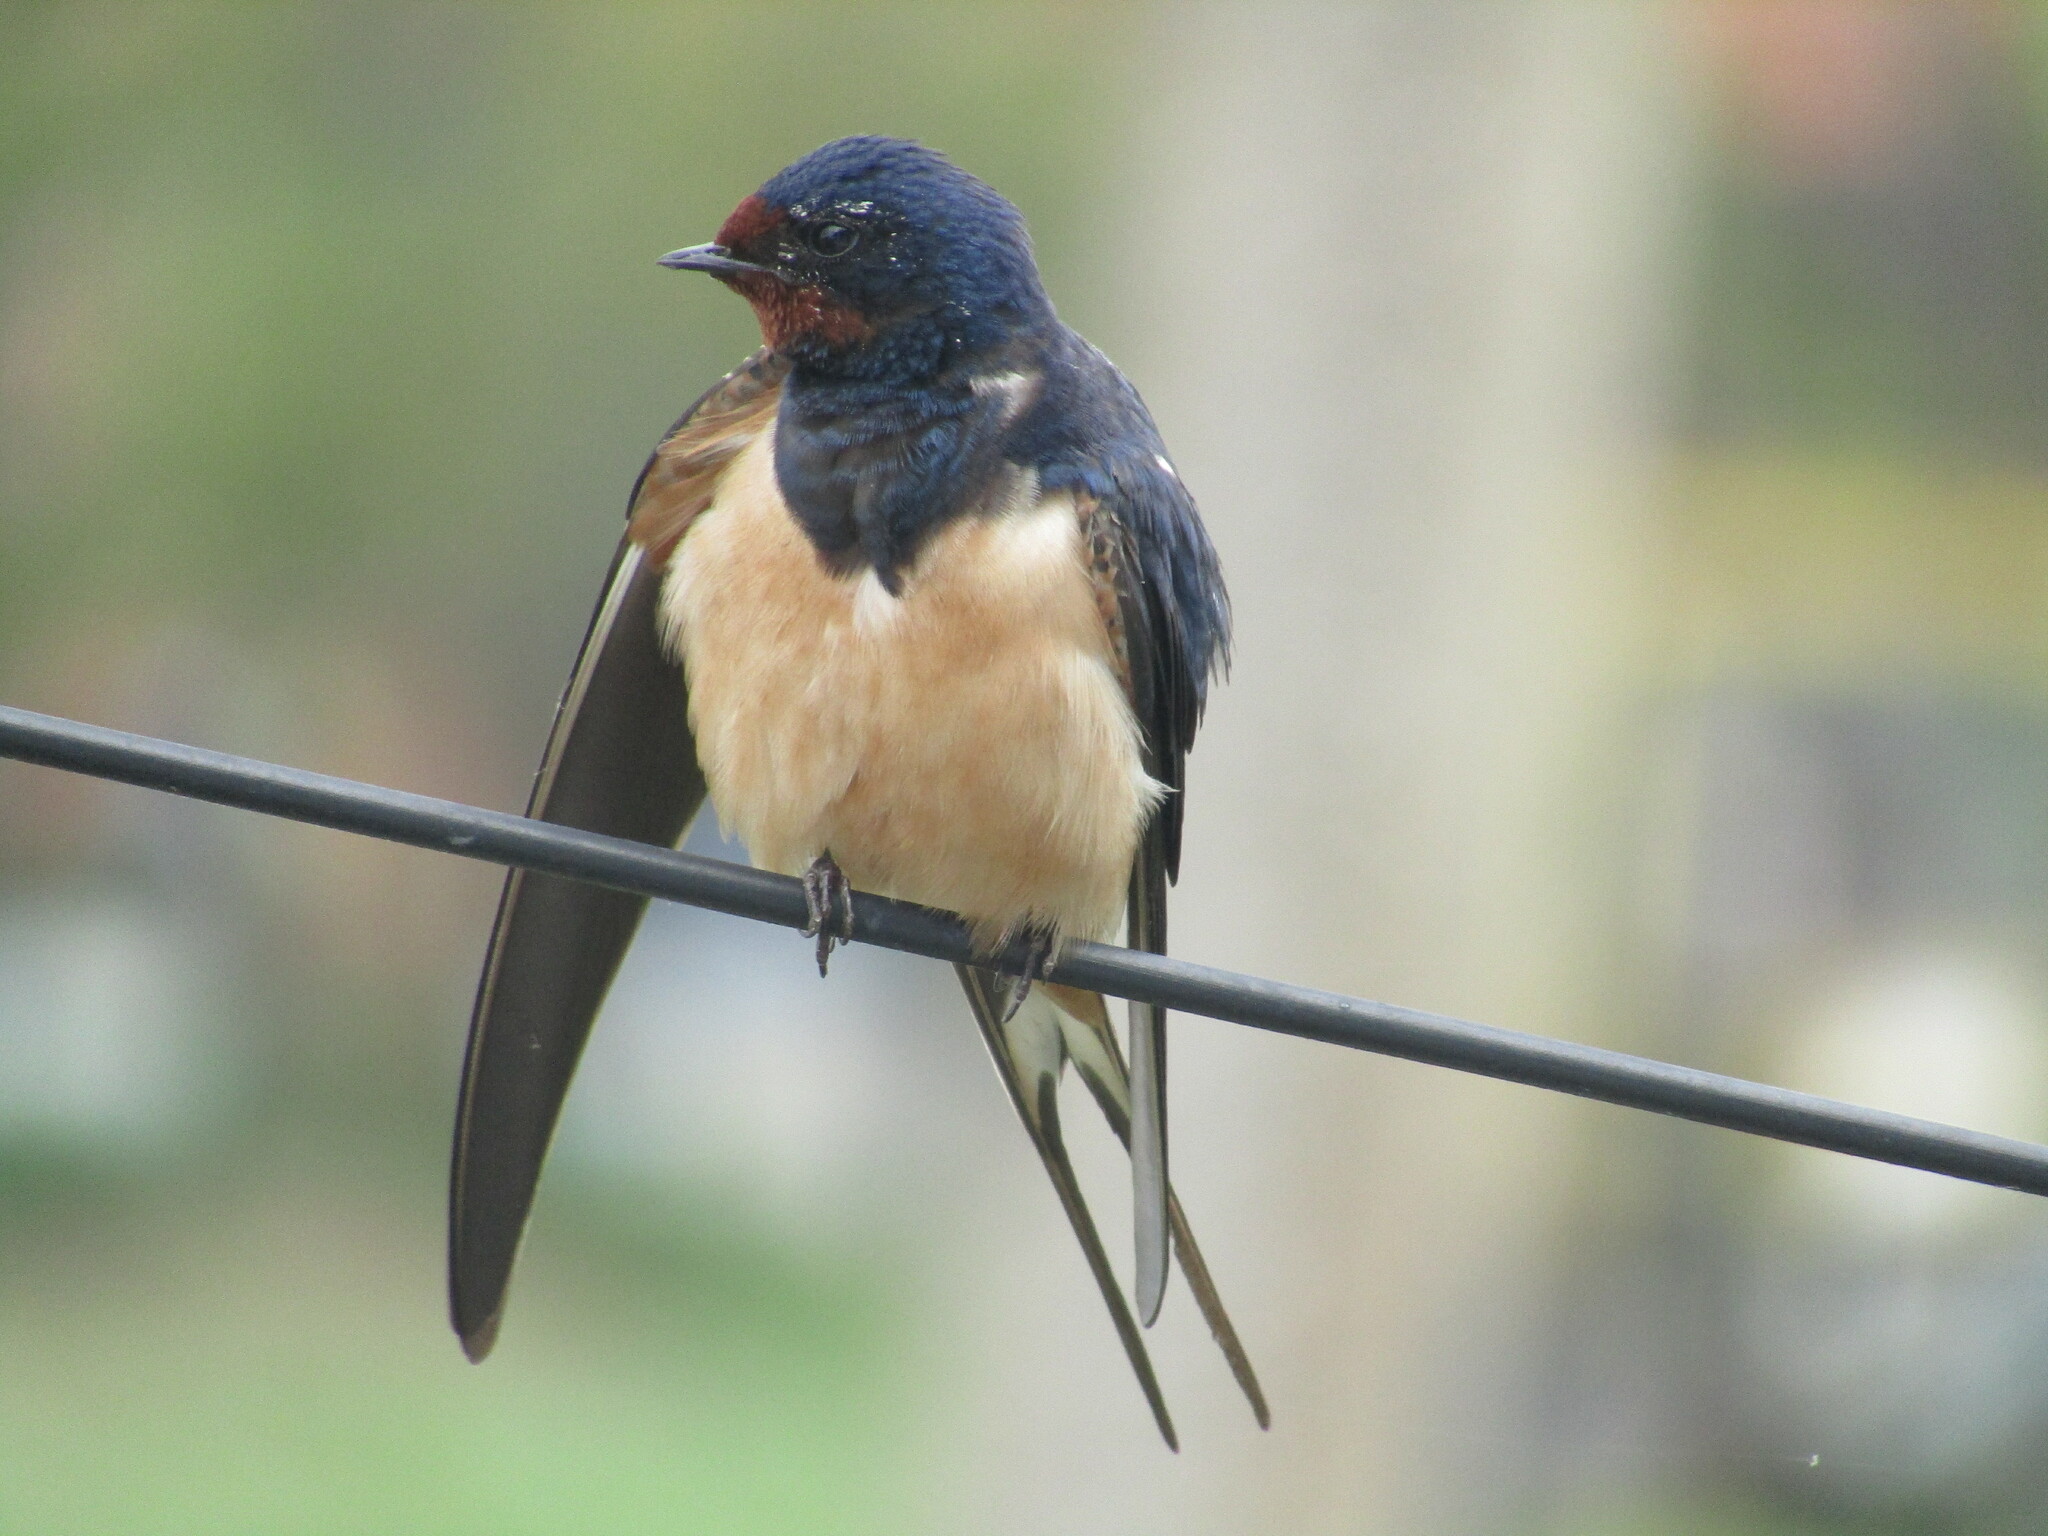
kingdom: Animalia
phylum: Chordata
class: Aves
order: Passeriformes
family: Hirundinidae
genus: Hirundo
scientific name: Hirundo rustica
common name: Barn swallow
